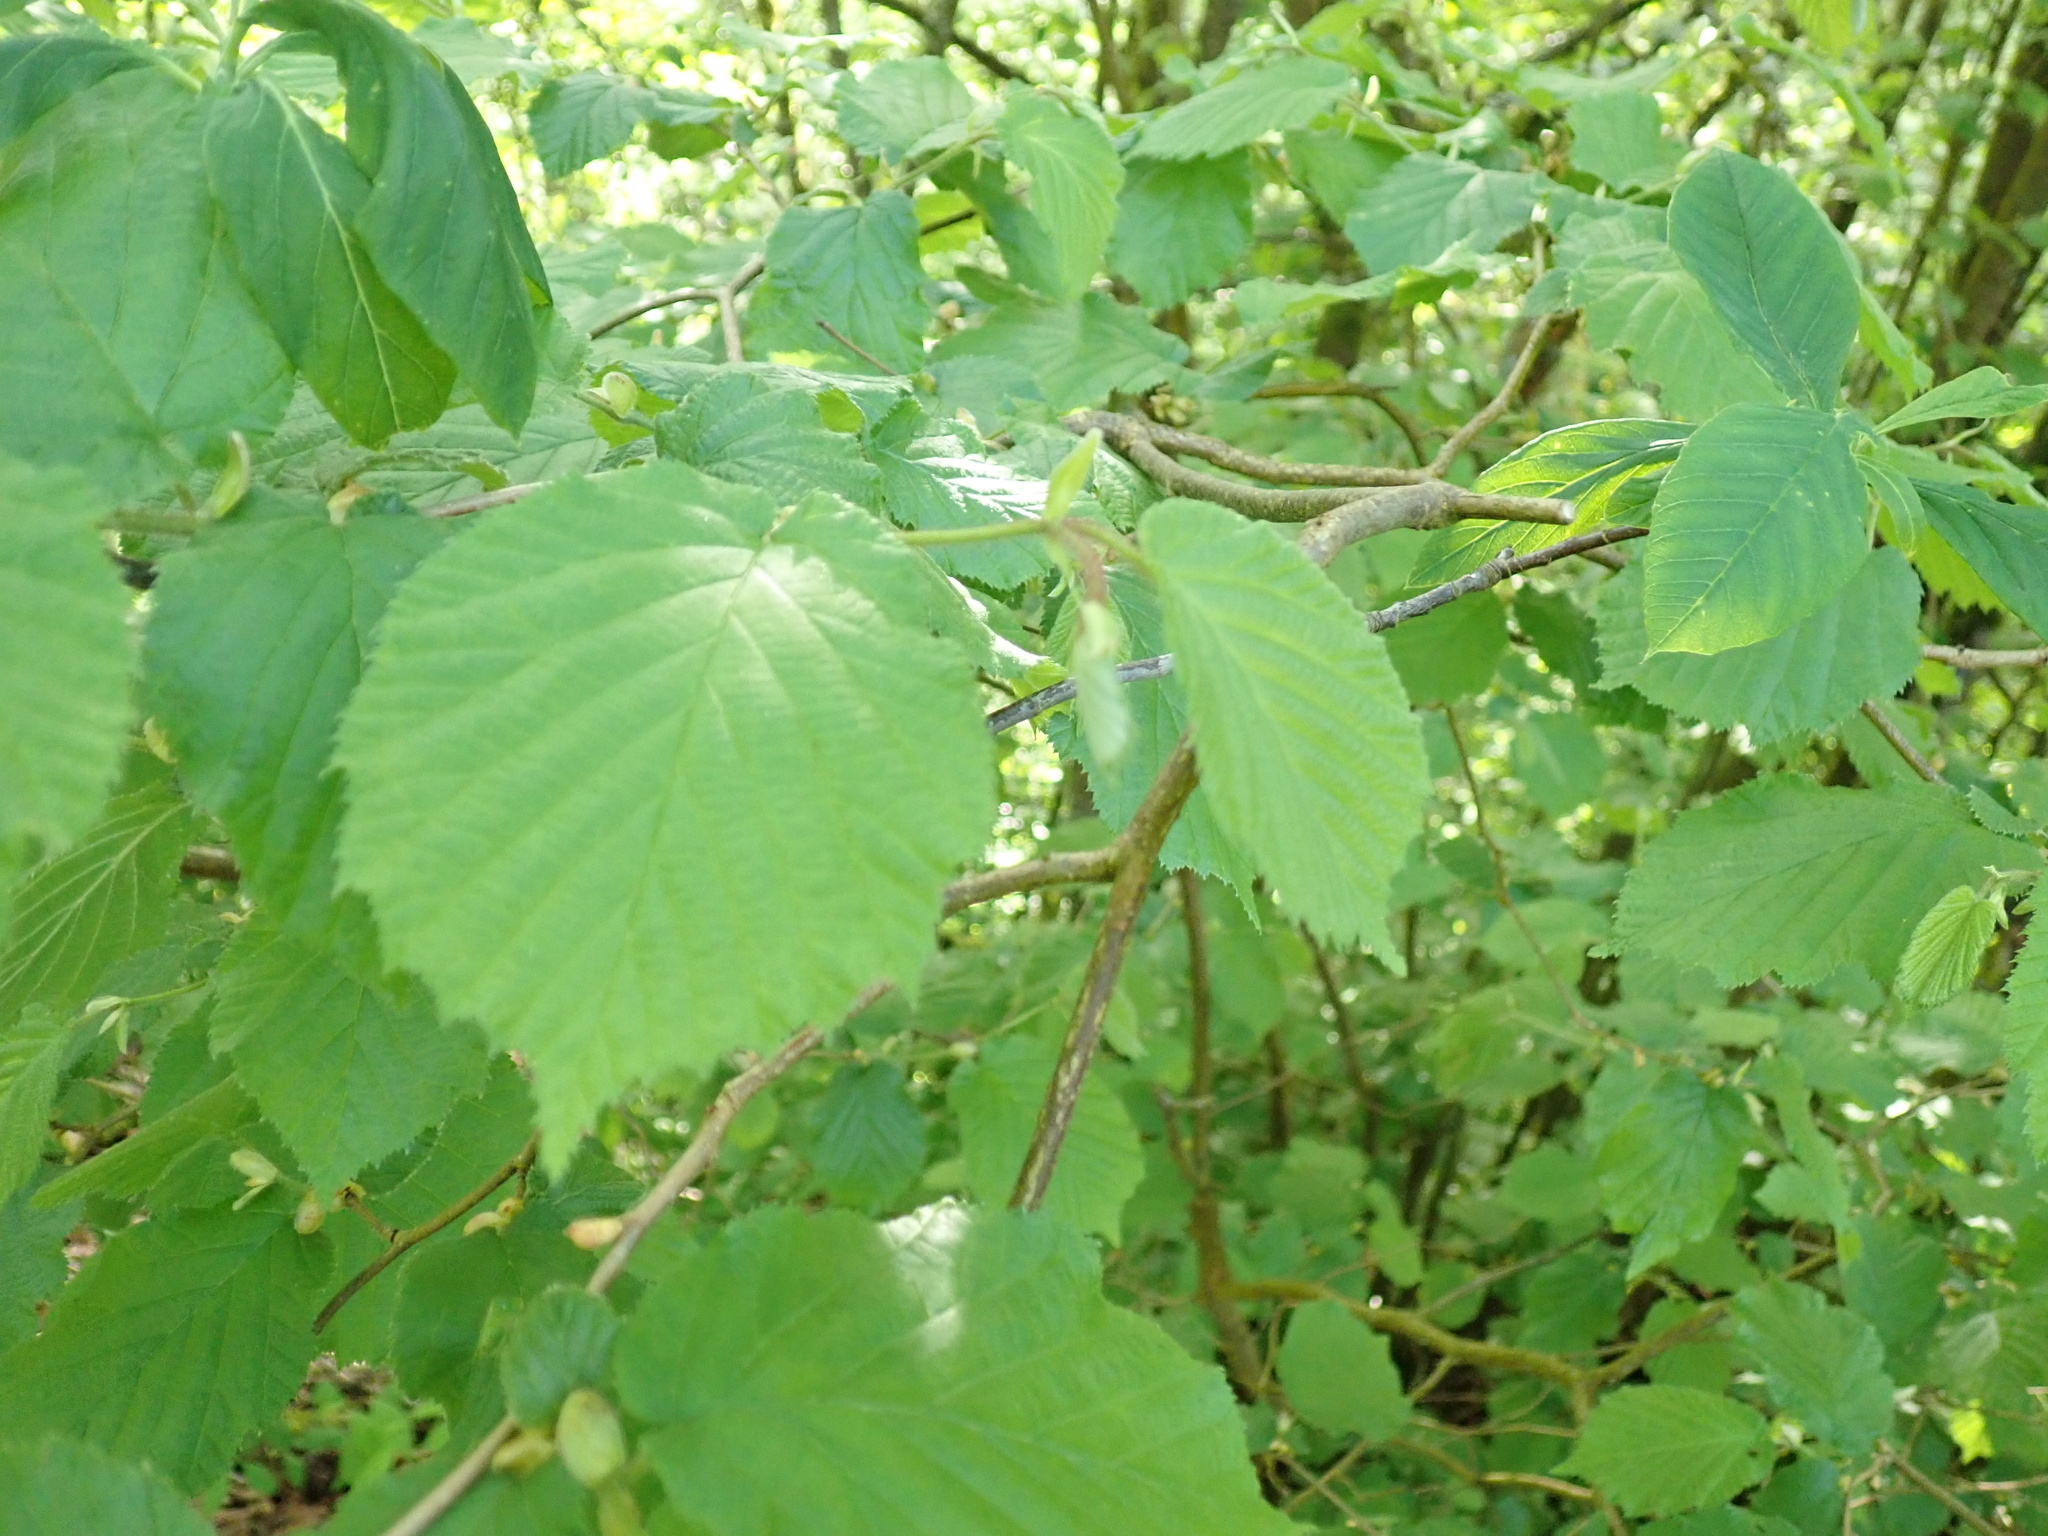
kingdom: Plantae
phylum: Tracheophyta
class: Magnoliopsida
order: Fagales
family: Betulaceae
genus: Corylus
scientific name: Corylus cornuta
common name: Beaked hazel
